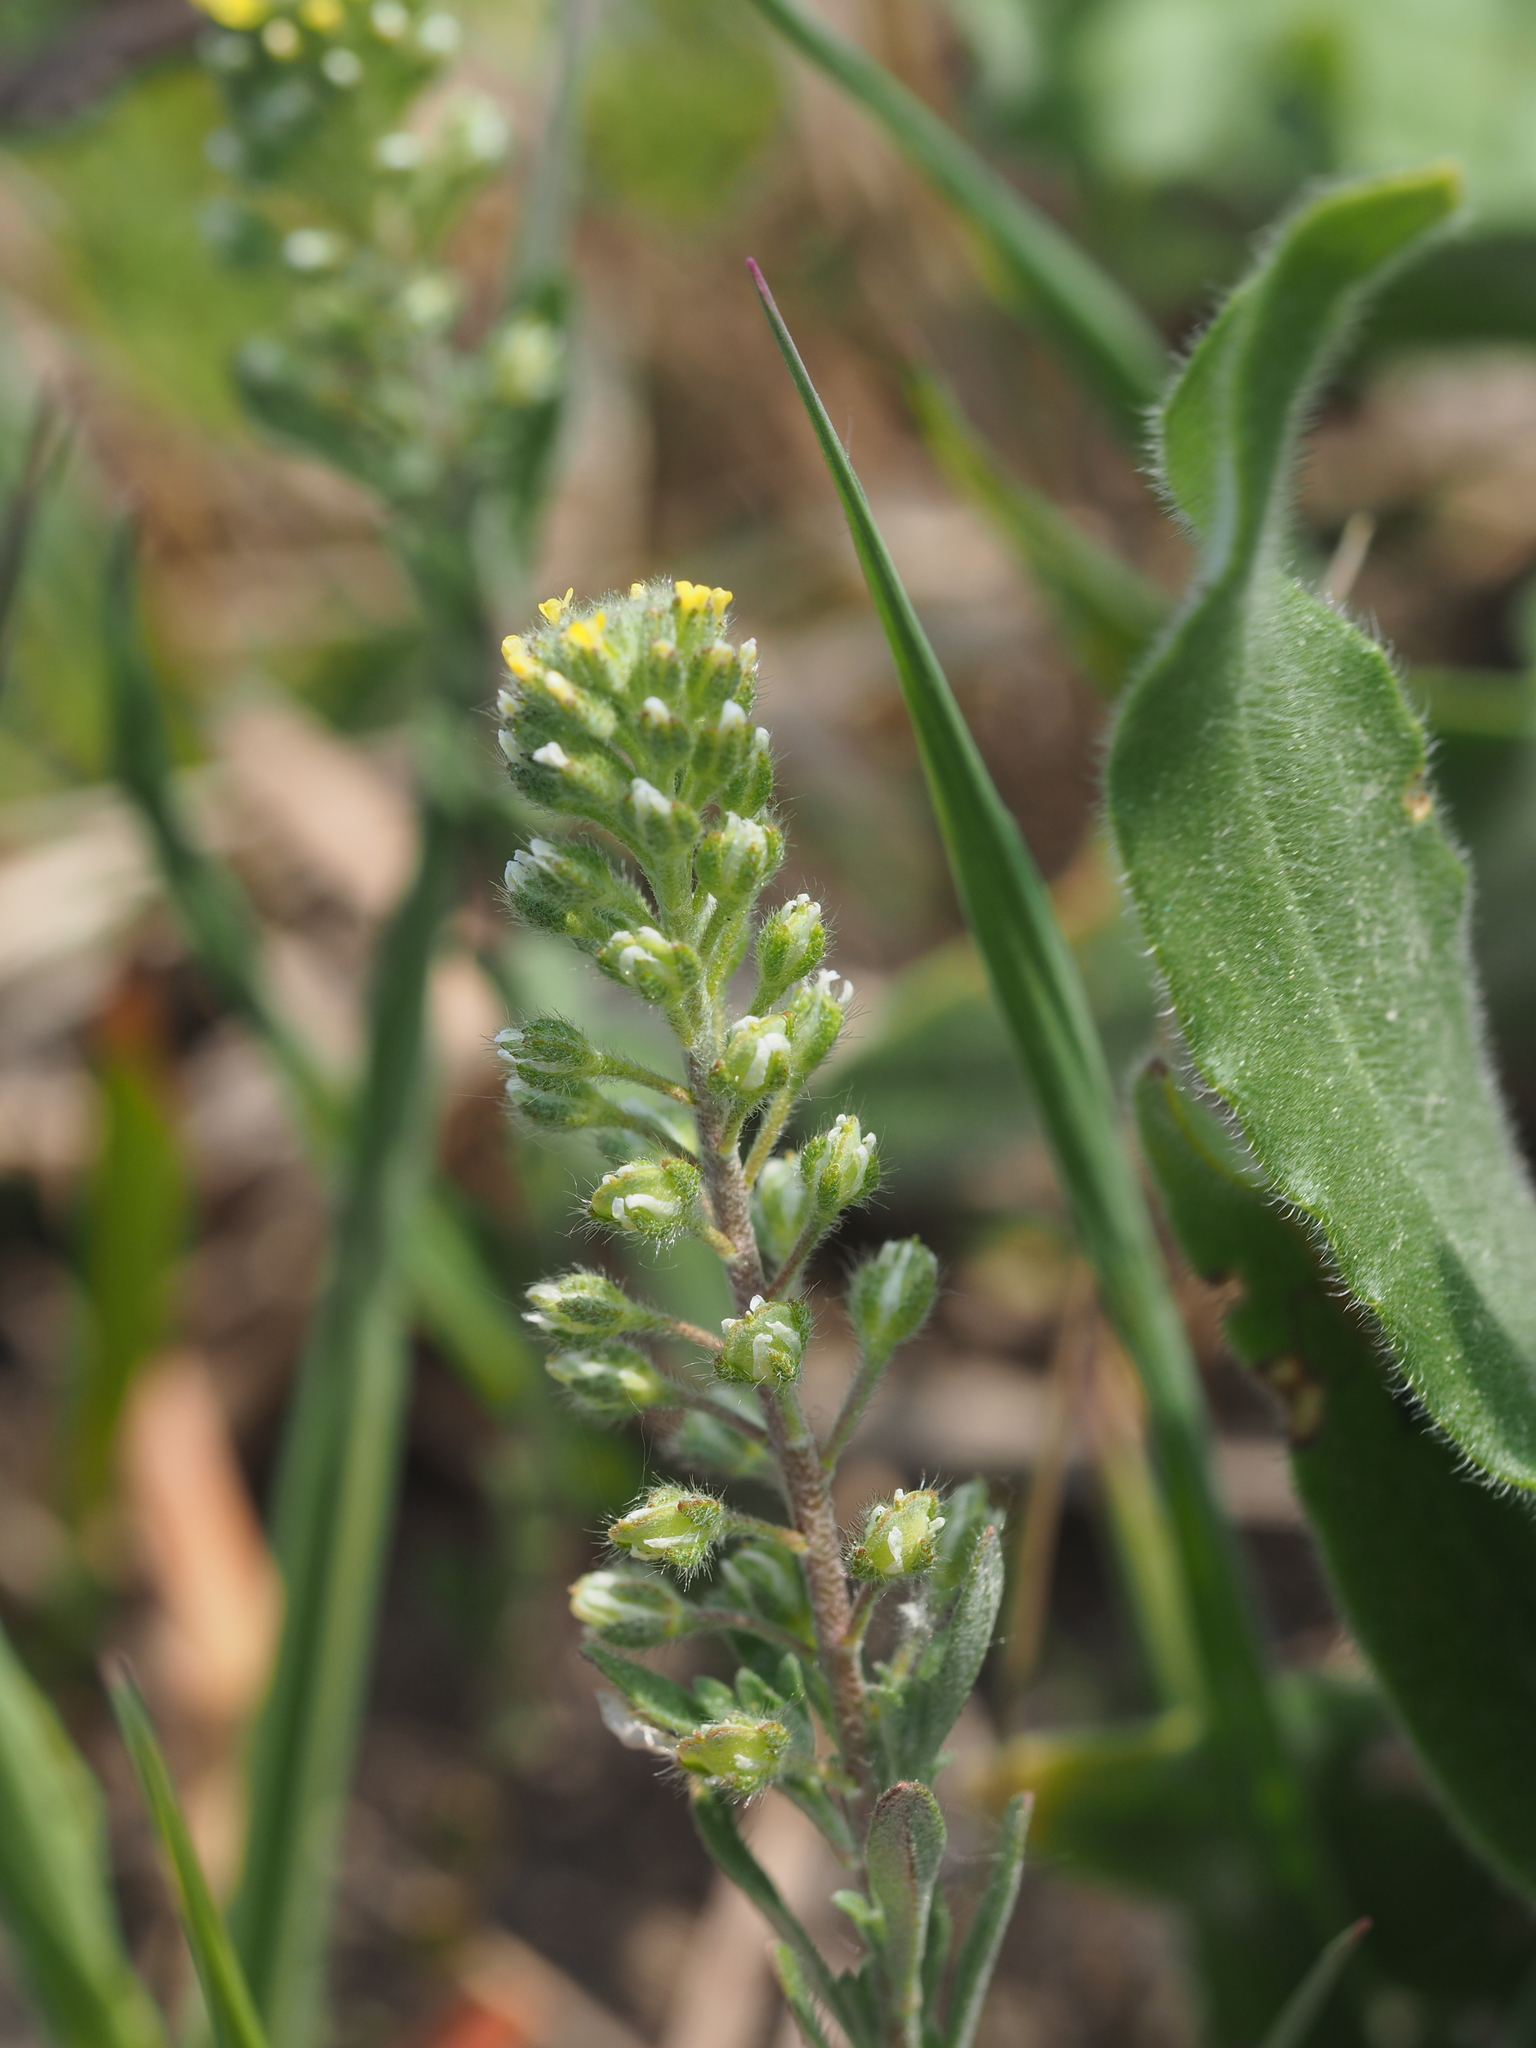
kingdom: Plantae
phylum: Tracheophyta
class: Magnoliopsida
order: Brassicales
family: Brassicaceae
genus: Alyssum
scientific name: Alyssum alyssoides
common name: Small alison
